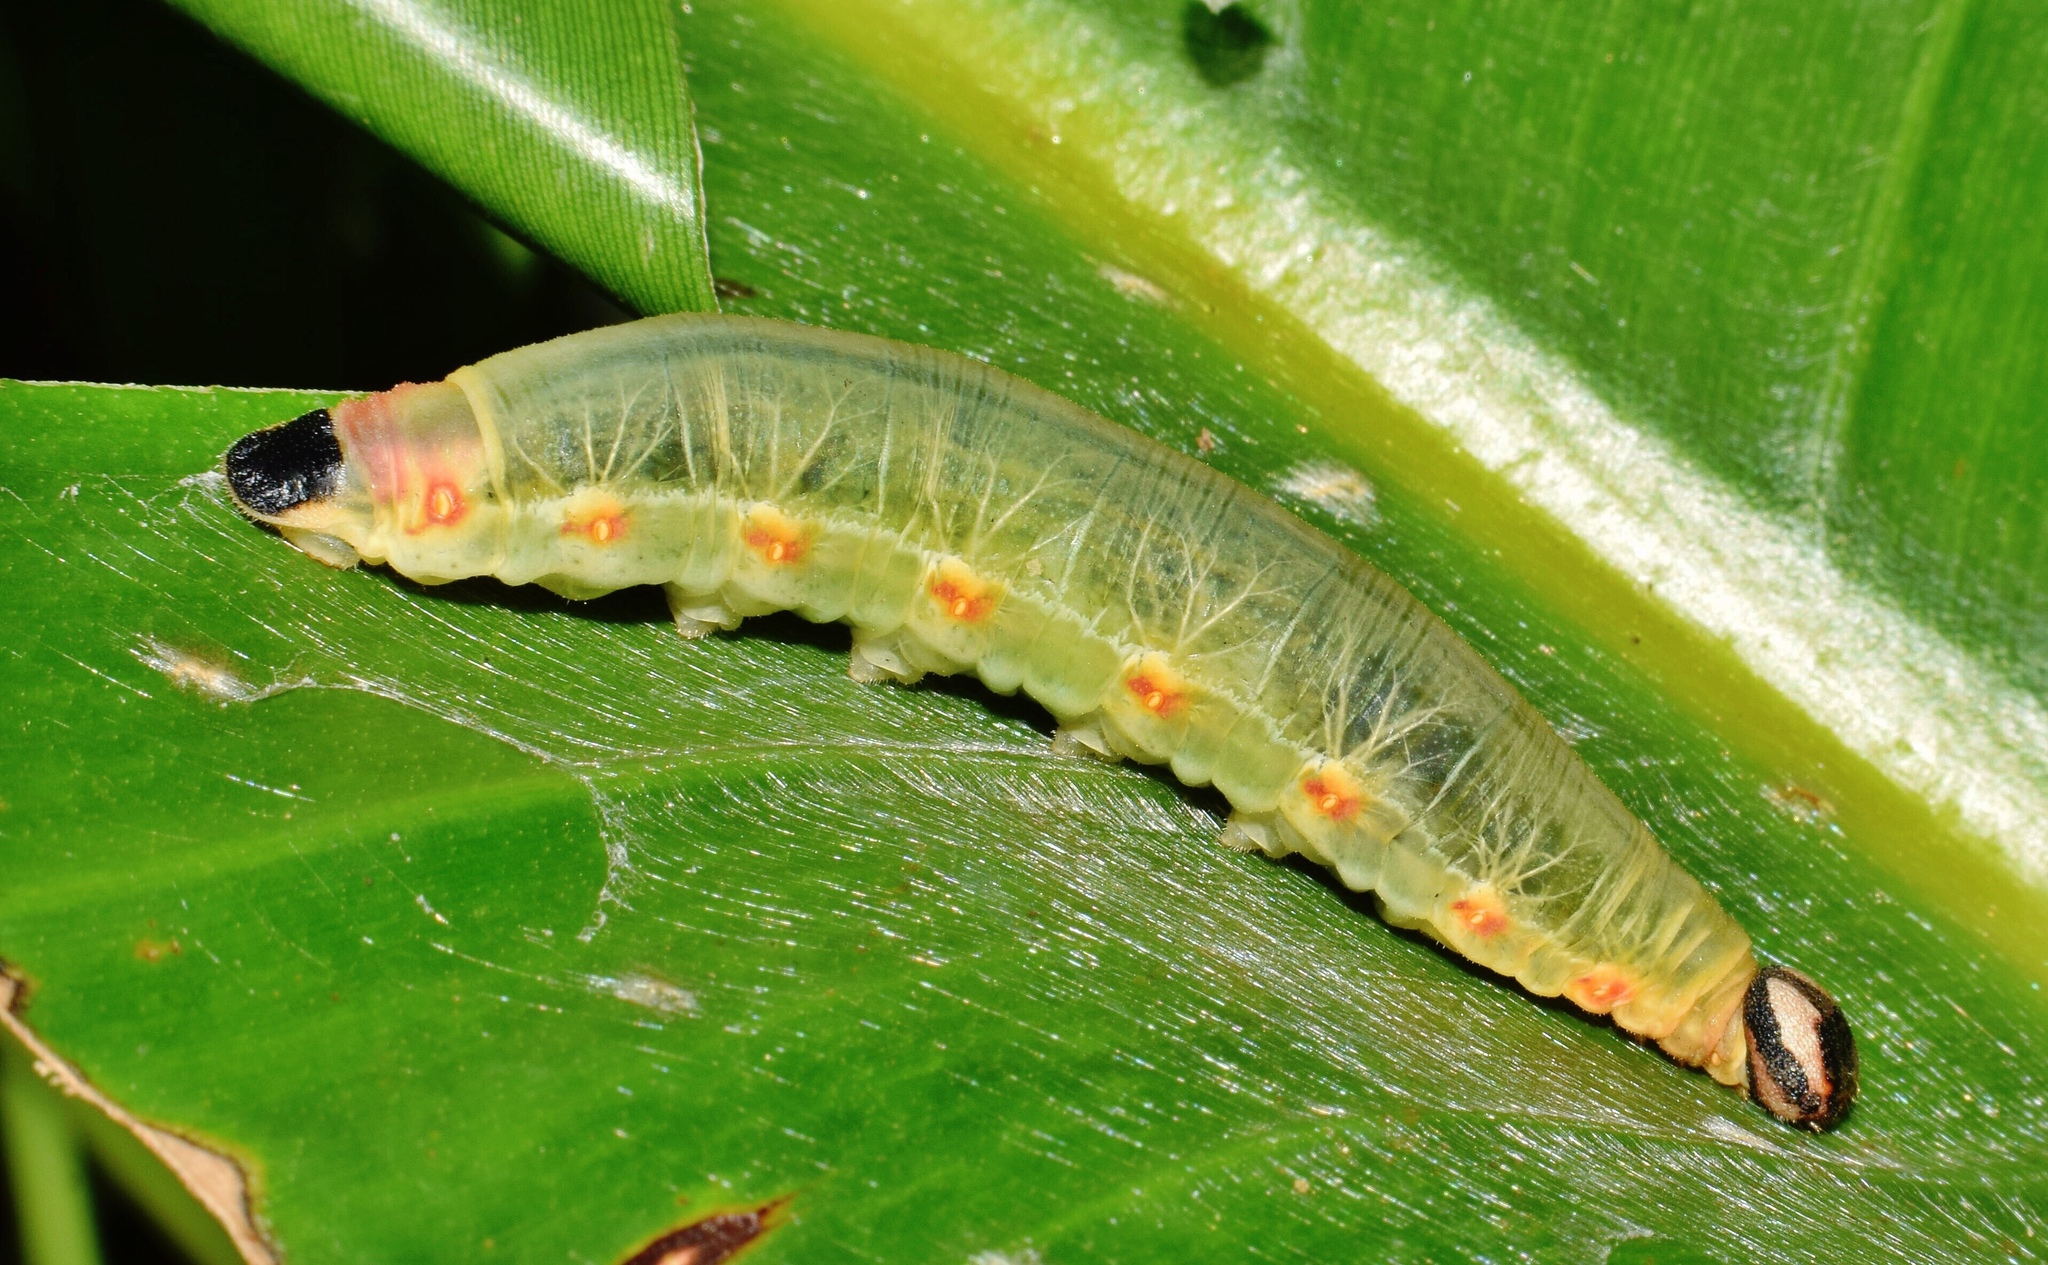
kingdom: Animalia
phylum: Arthropoda
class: Insecta
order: Lepidoptera
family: Hesperiidae
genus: Moltena
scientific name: Moltena fiara
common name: Banana-tree night-fighter
